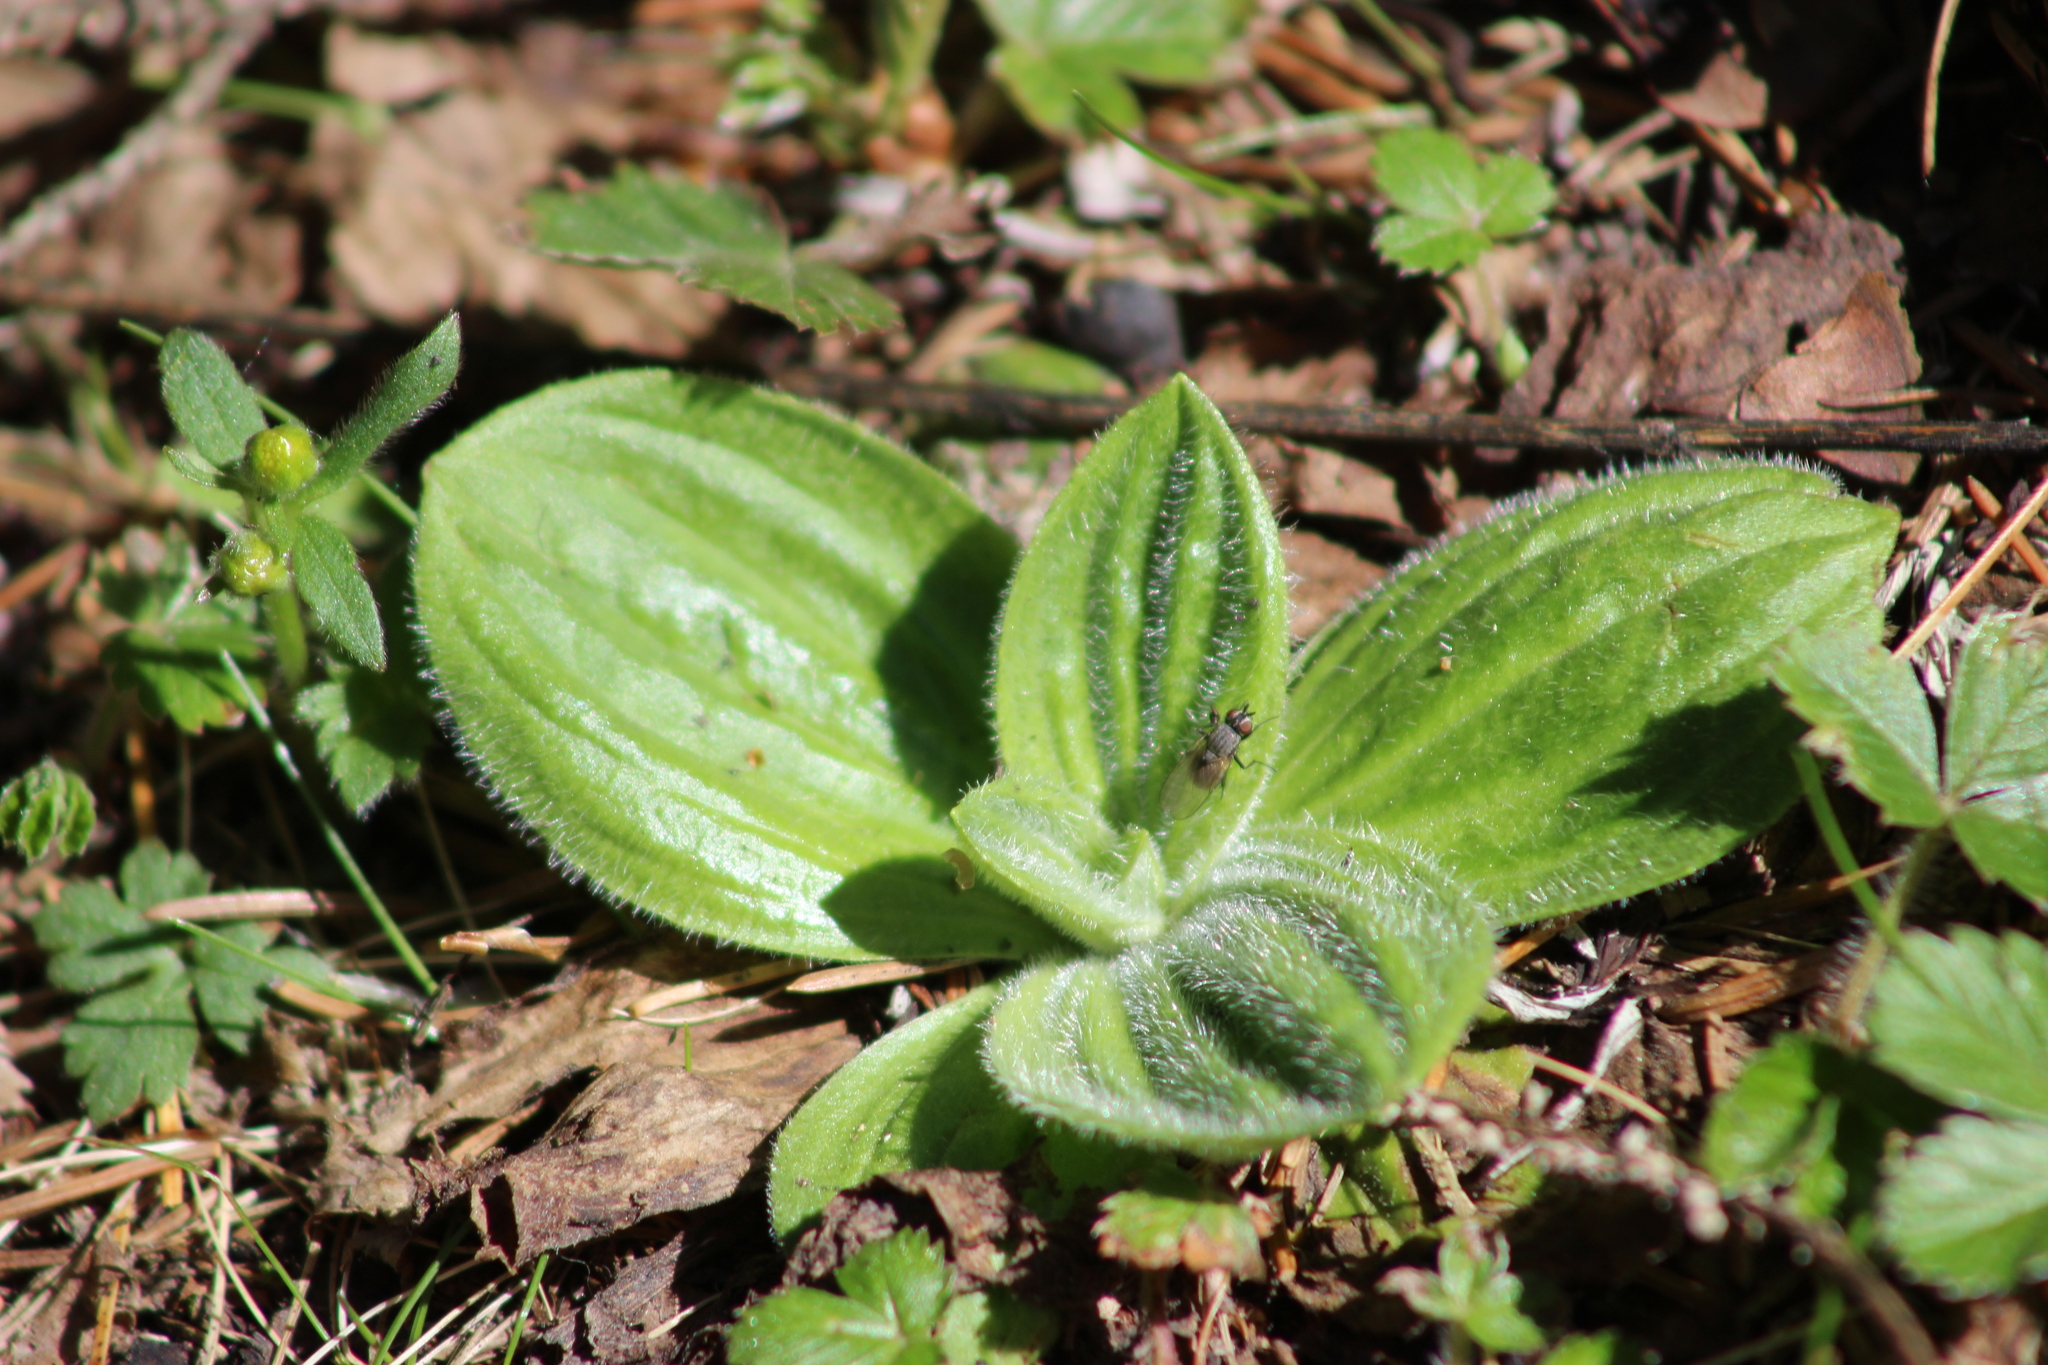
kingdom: Plantae
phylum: Tracheophyta
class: Magnoliopsida
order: Lamiales
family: Plantaginaceae
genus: Plantago
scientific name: Plantago media
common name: Hoary plantain
